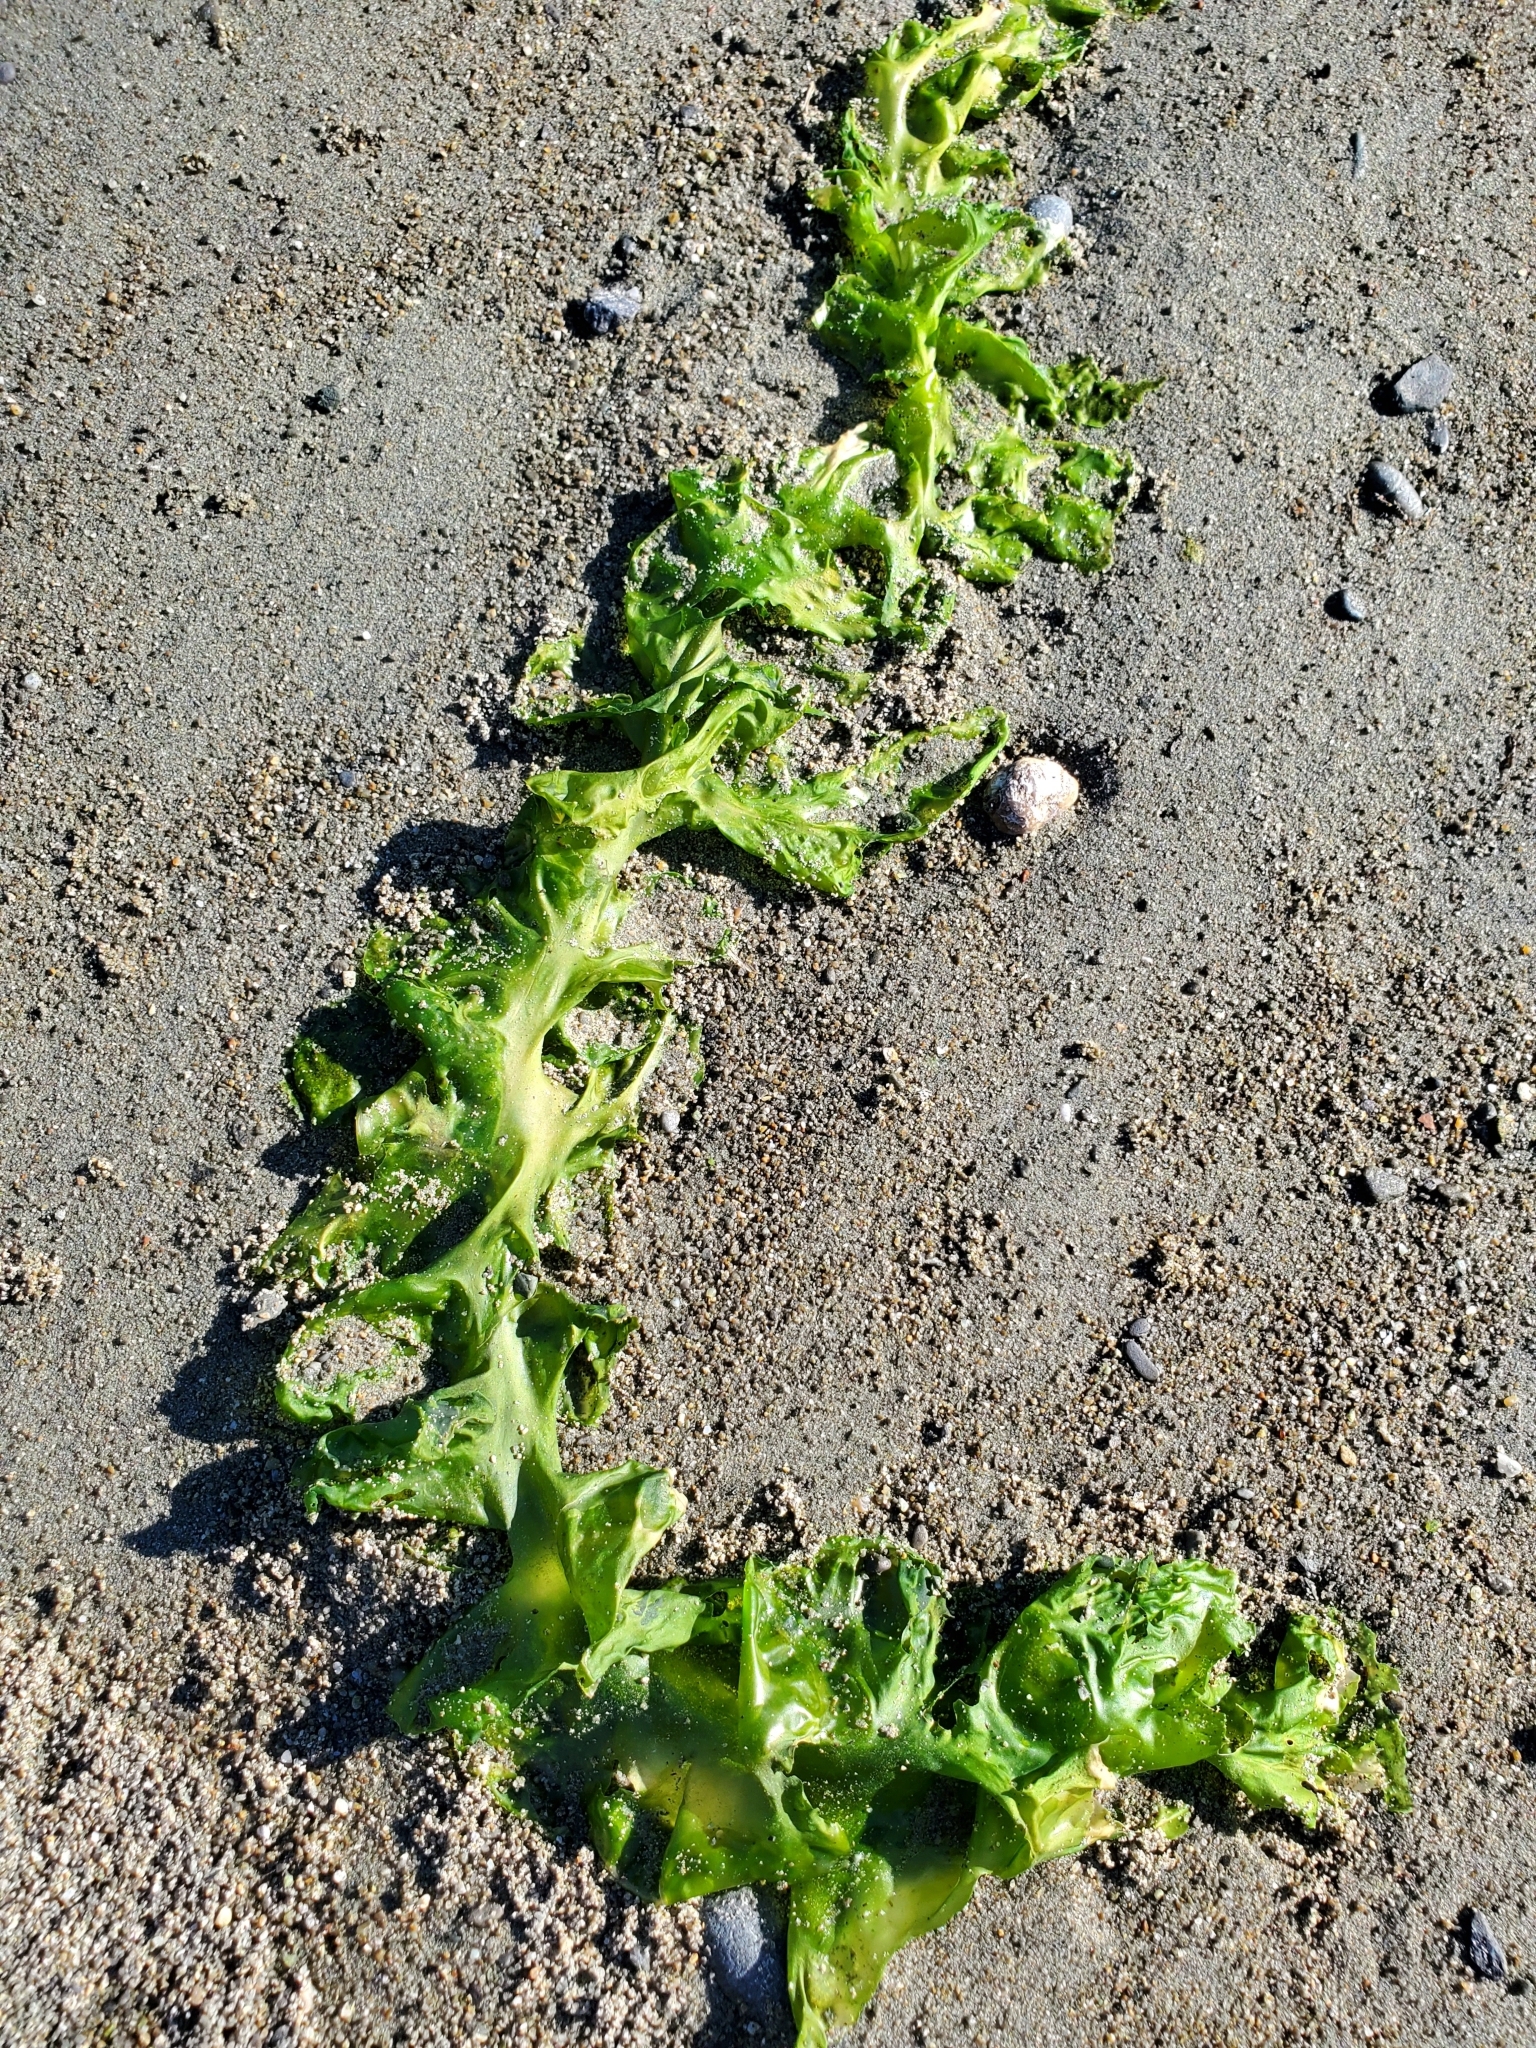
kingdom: Plantae
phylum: Chlorophyta
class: Ulvophyceae
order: Ulvales
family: Ulvaceae
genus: Ulva
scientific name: Ulva
